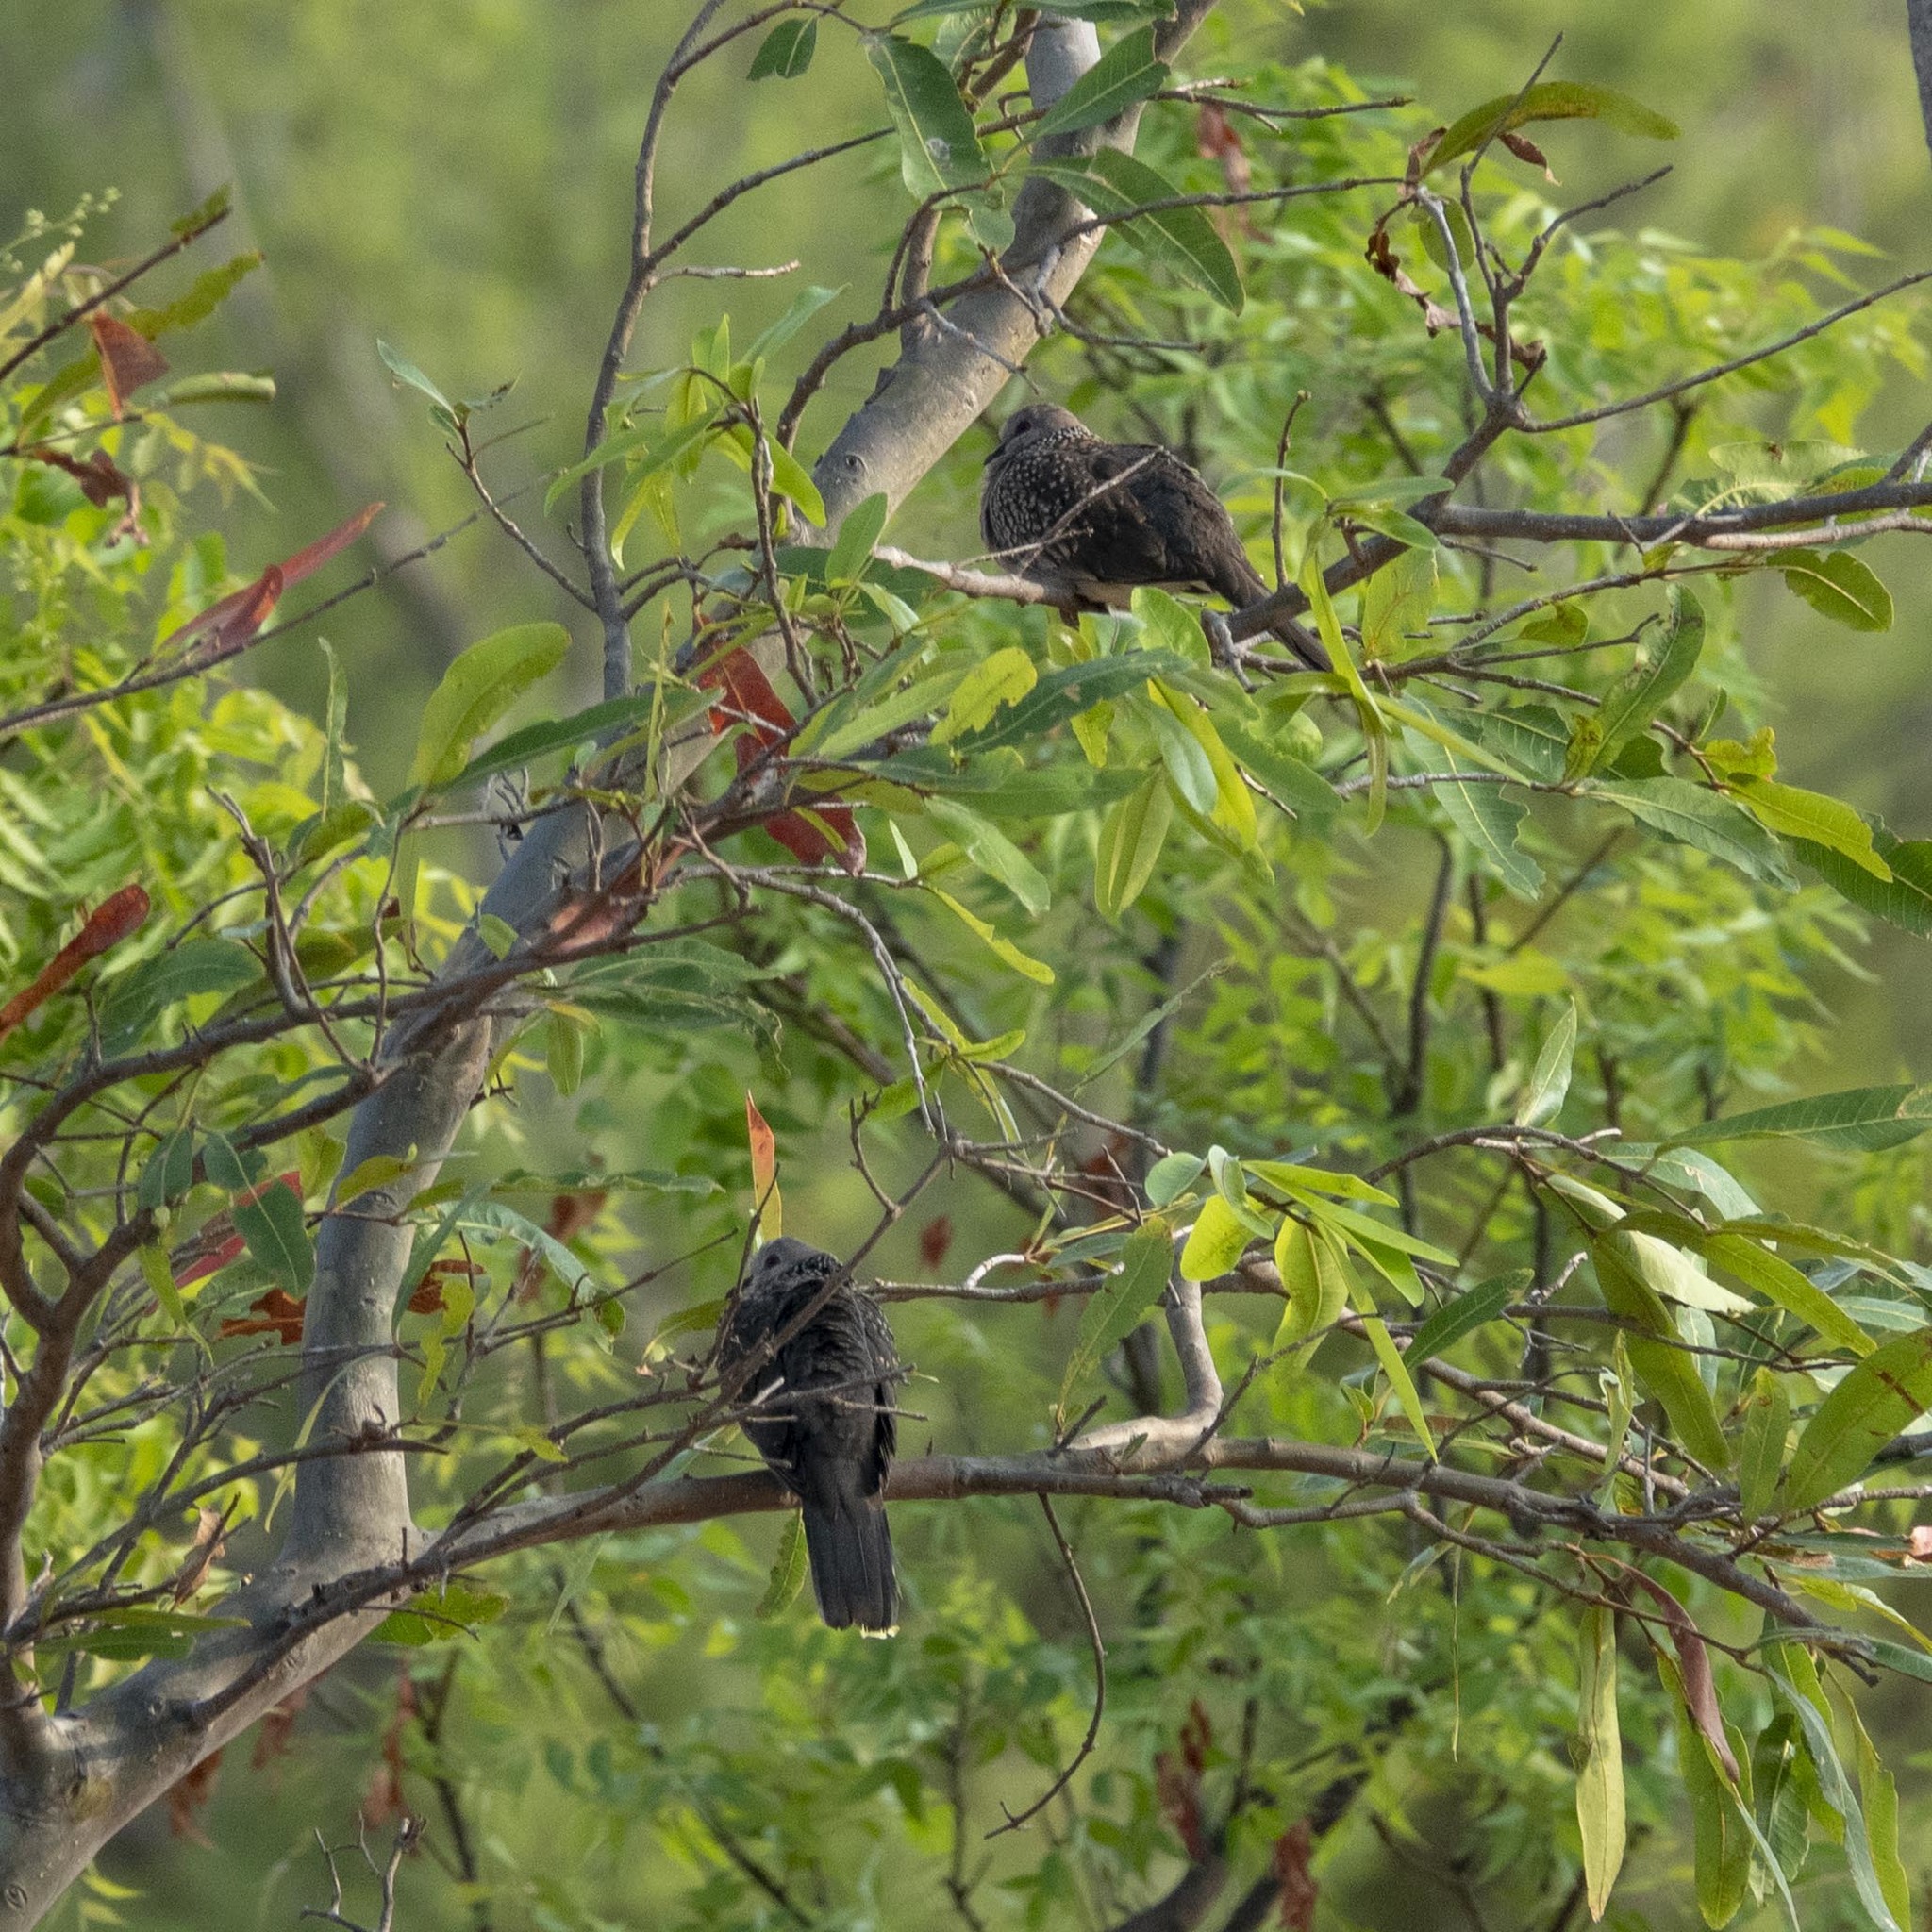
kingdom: Animalia
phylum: Chordata
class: Aves
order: Columbiformes
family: Columbidae
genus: Spilopelia
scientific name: Spilopelia chinensis
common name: Spotted dove
